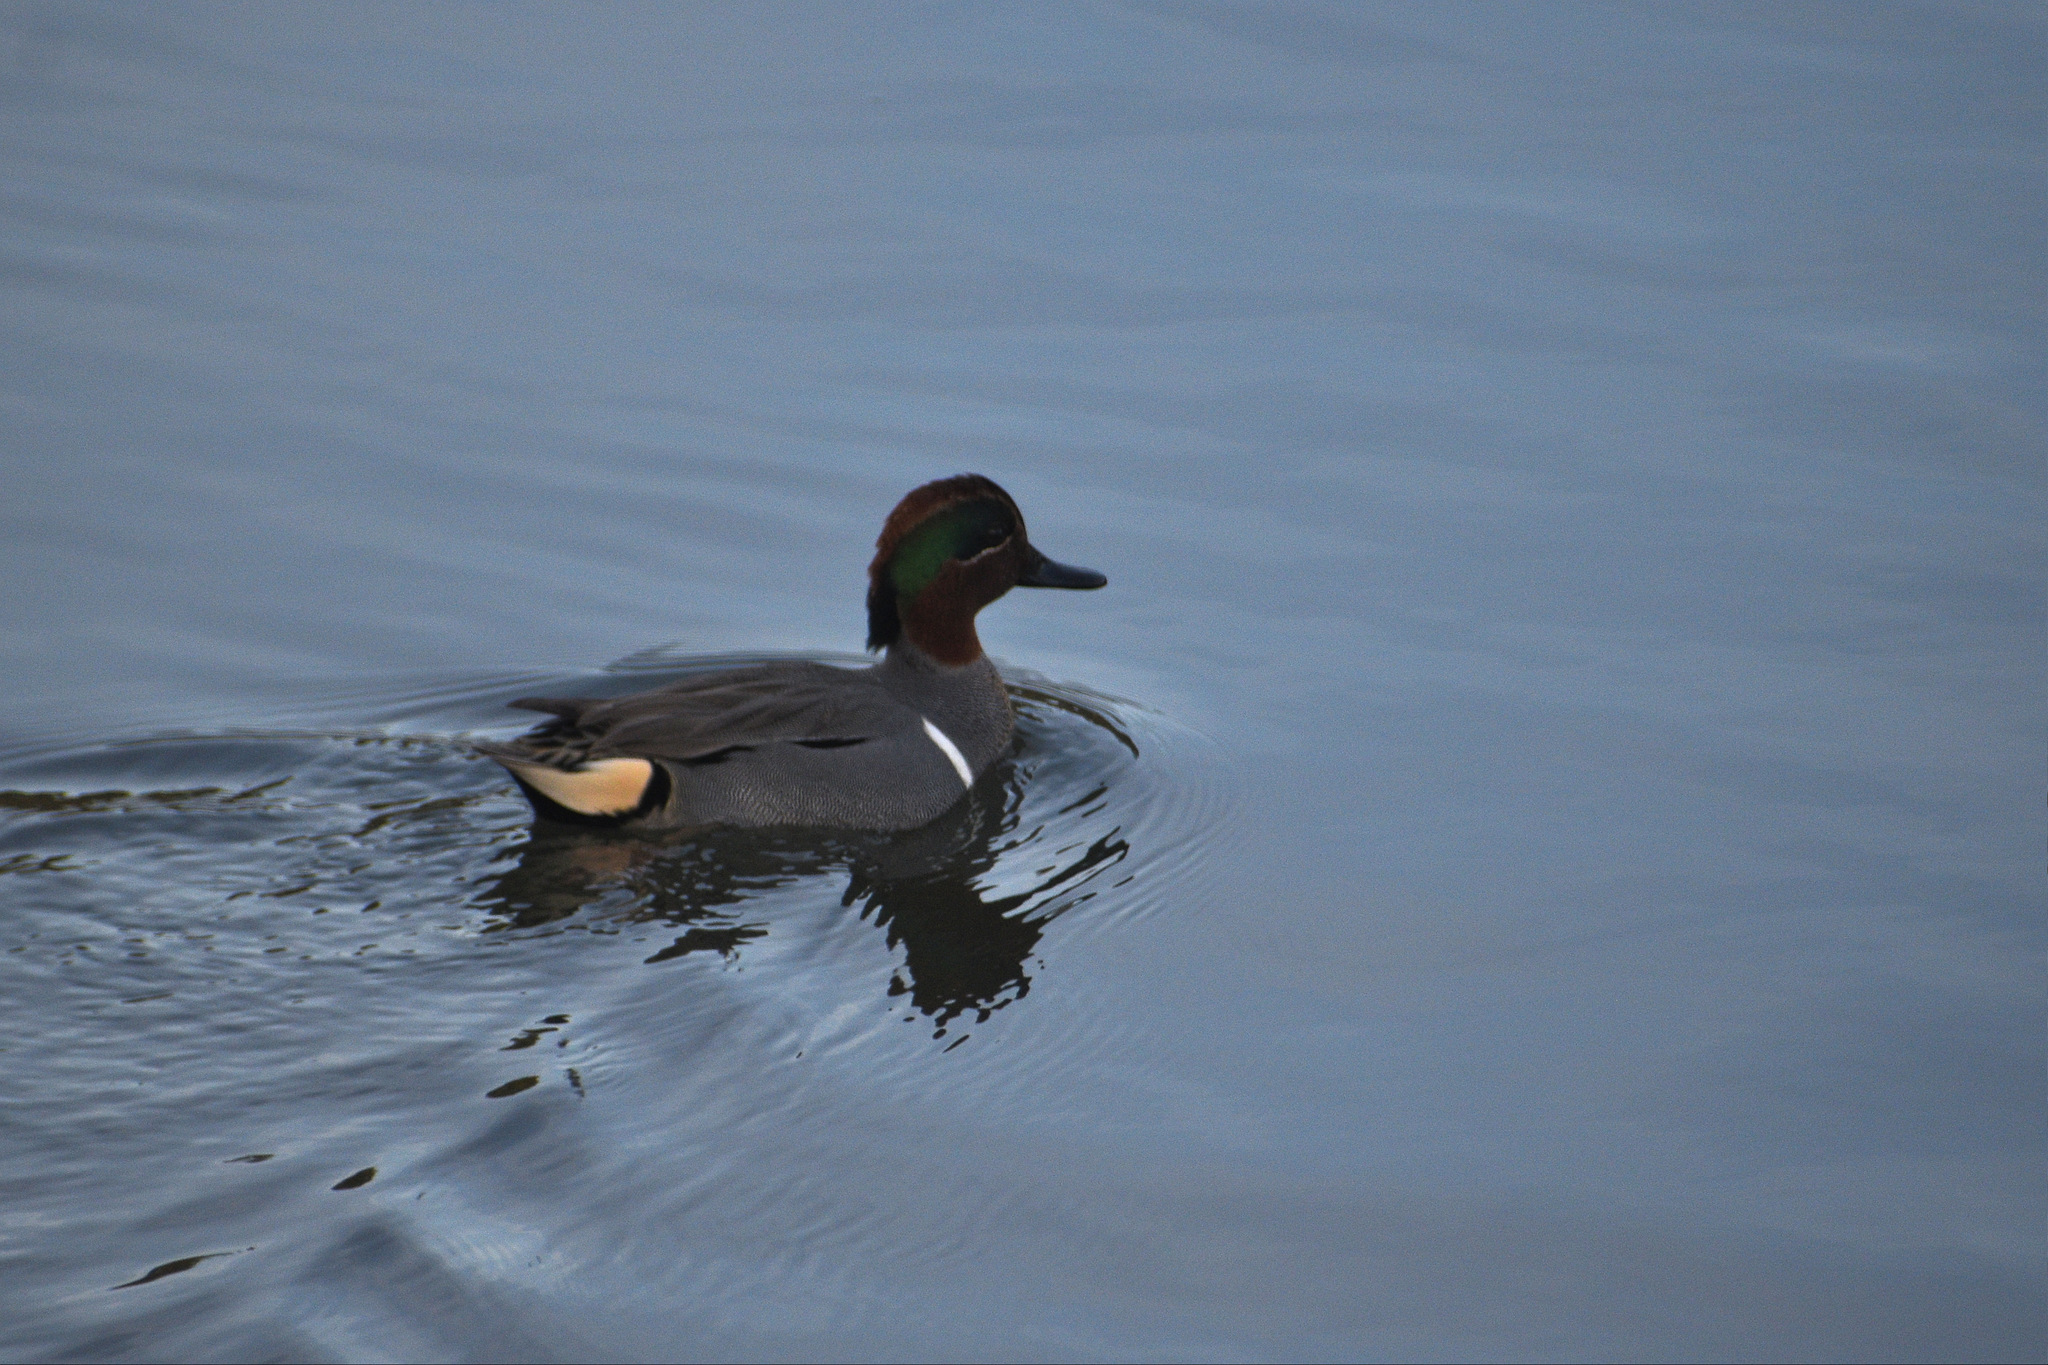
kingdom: Animalia
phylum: Chordata
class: Aves
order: Anseriformes
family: Anatidae
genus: Anas
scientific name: Anas crecca
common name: Eurasian teal
